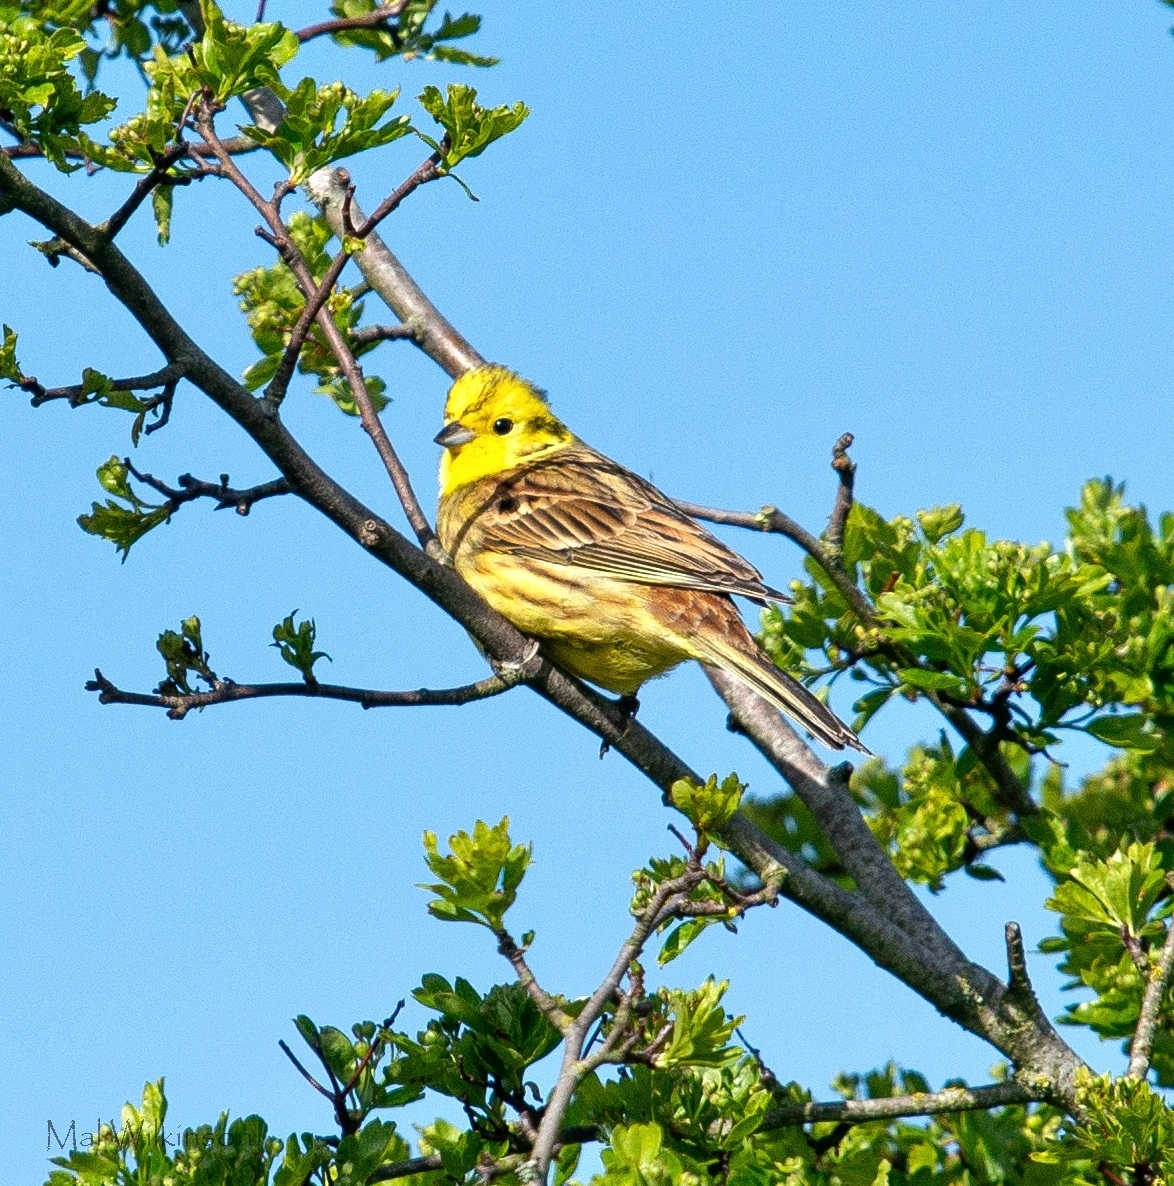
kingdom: Animalia
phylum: Chordata
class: Aves
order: Passeriformes
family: Emberizidae
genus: Emberiza
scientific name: Emberiza citrinella
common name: Yellowhammer
